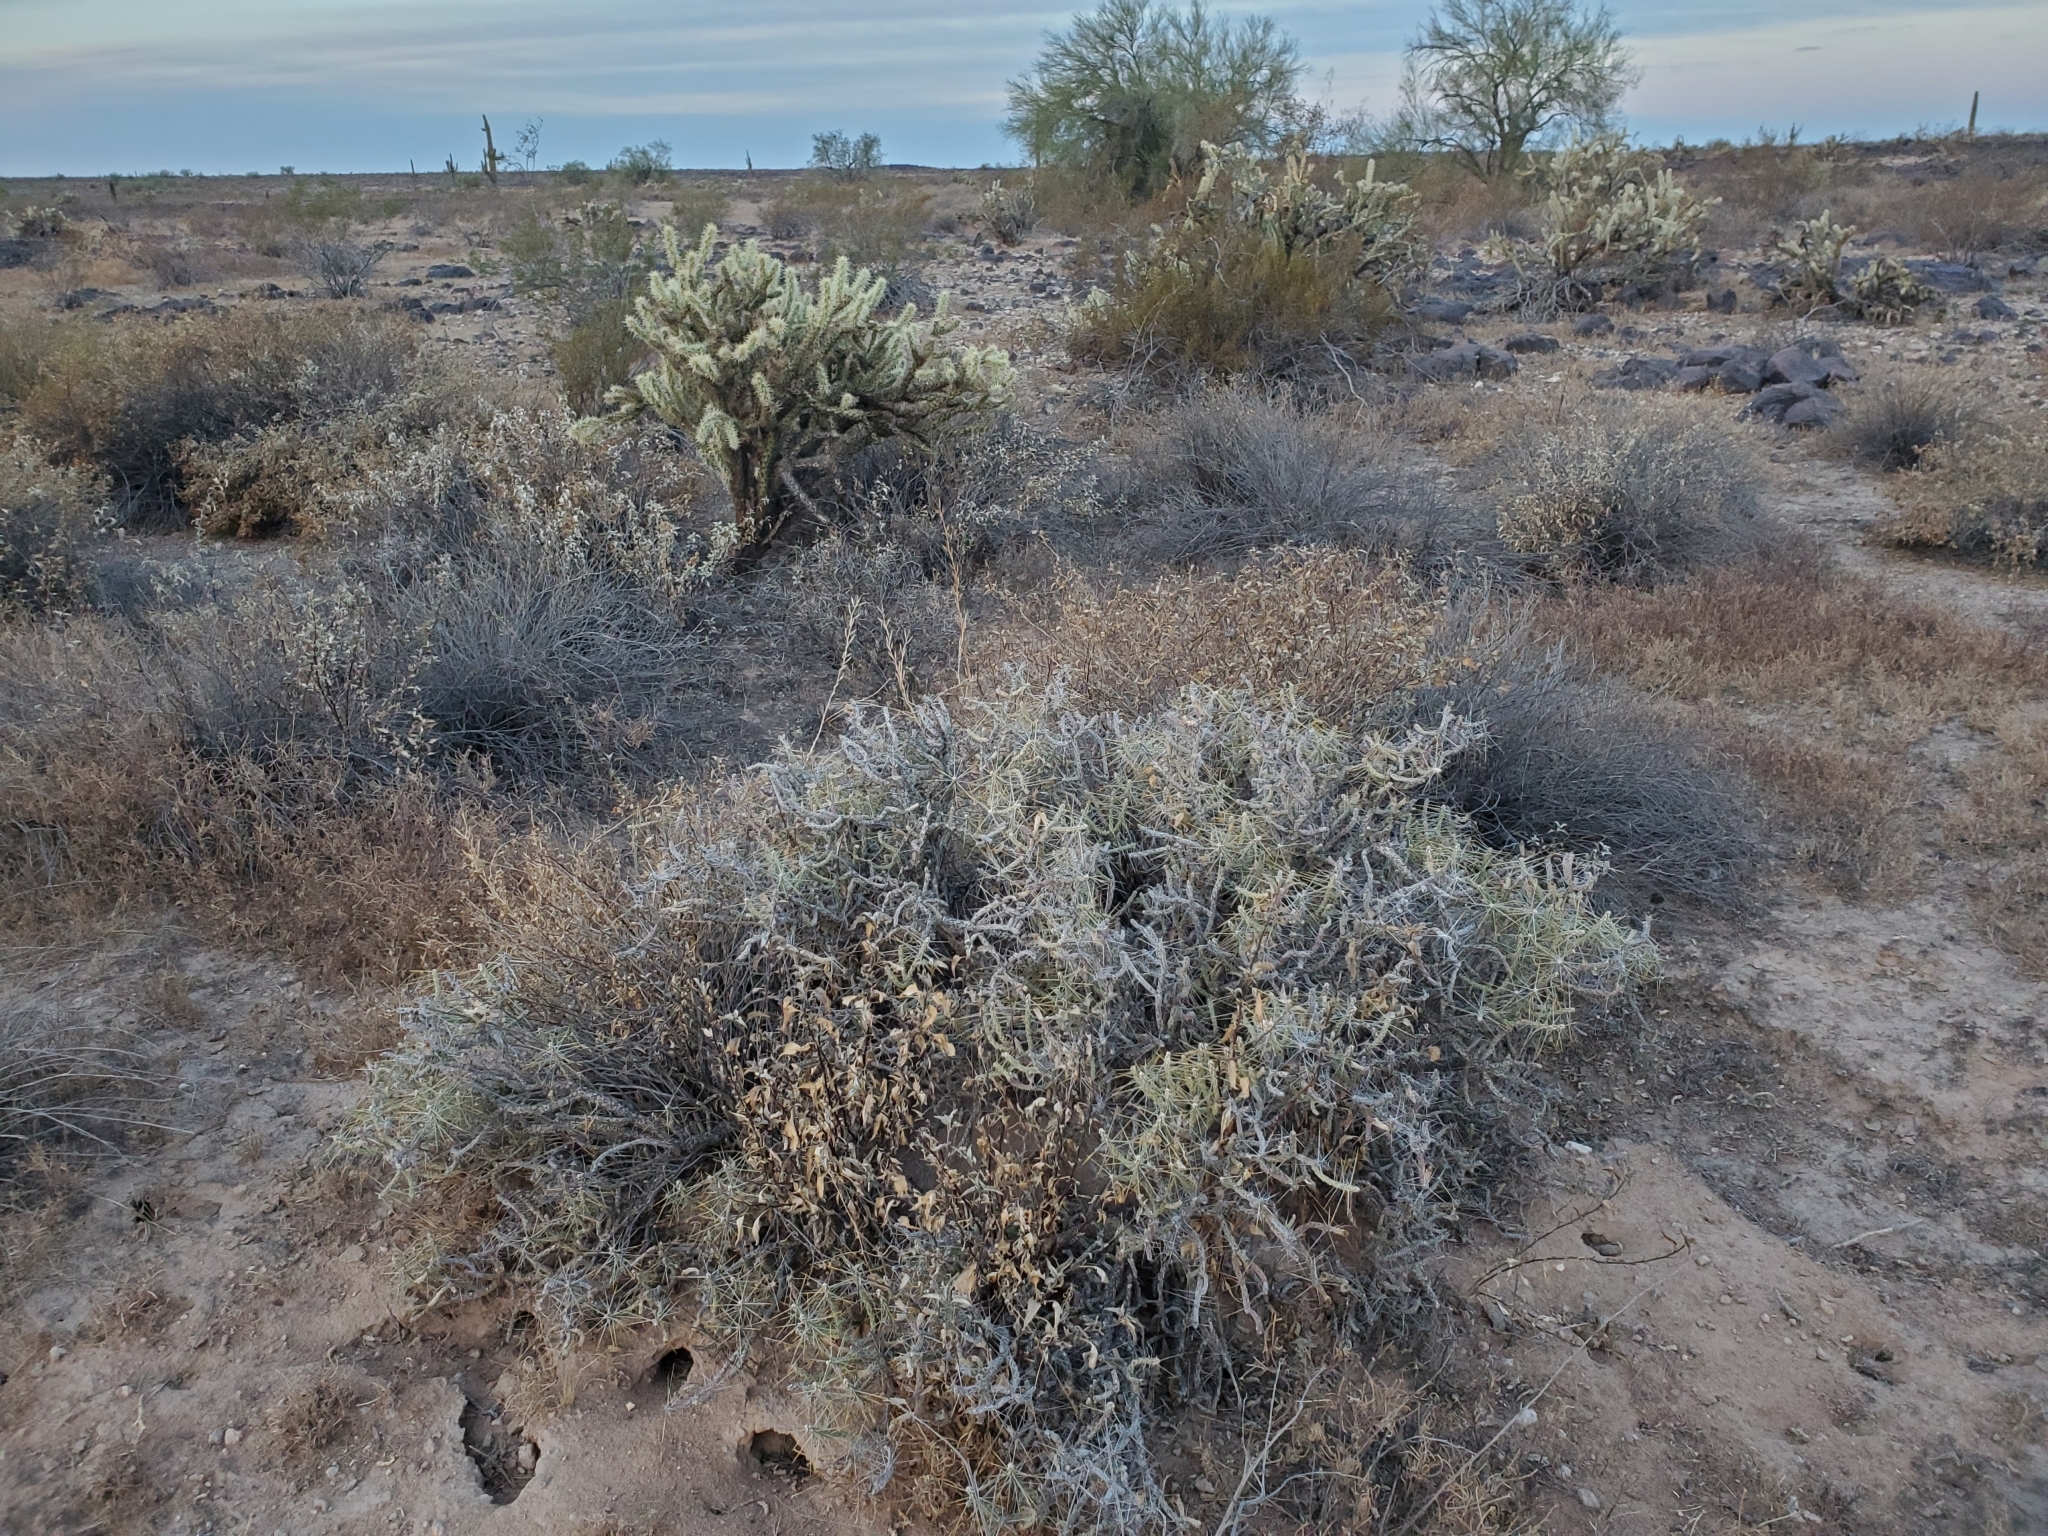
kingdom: Plantae
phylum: Tracheophyta
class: Magnoliopsida
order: Caryophyllales
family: Cactaceae
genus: Cylindropuntia
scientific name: Cylindropuntia ramosissima
